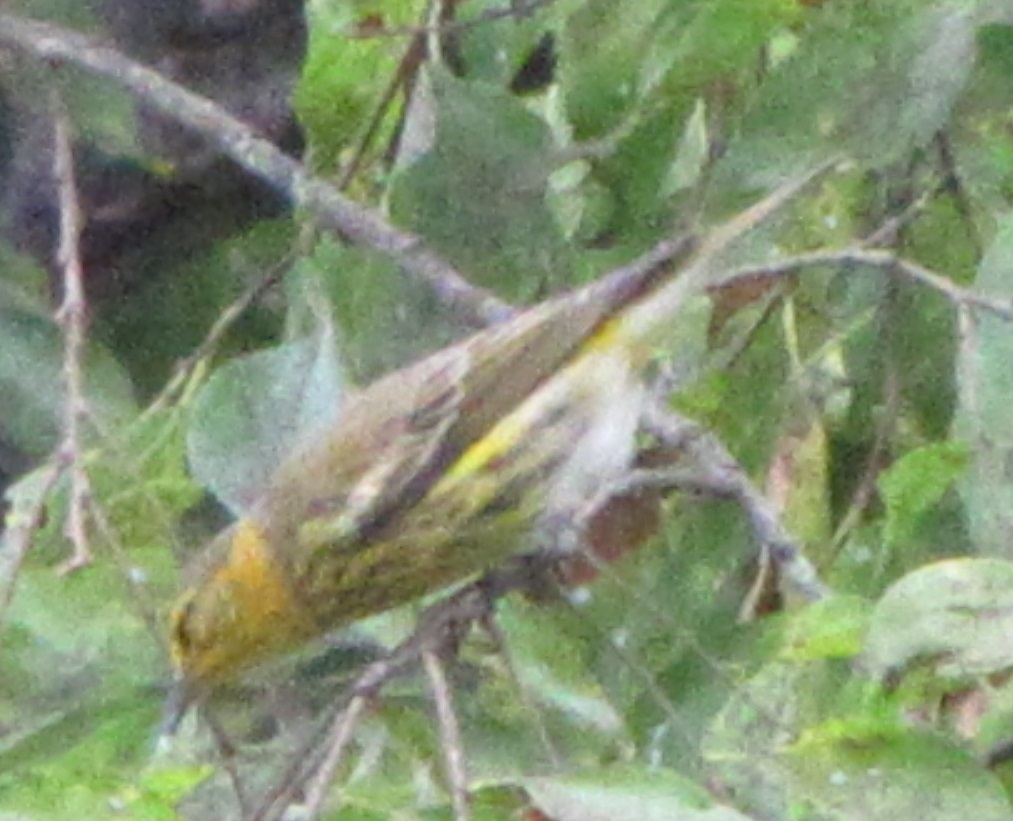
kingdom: Animalia
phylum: Chordata
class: Aves
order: Passeriformes
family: Parulidae
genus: Setophaga
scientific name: Setophaga tigrina
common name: Cape may warbler
